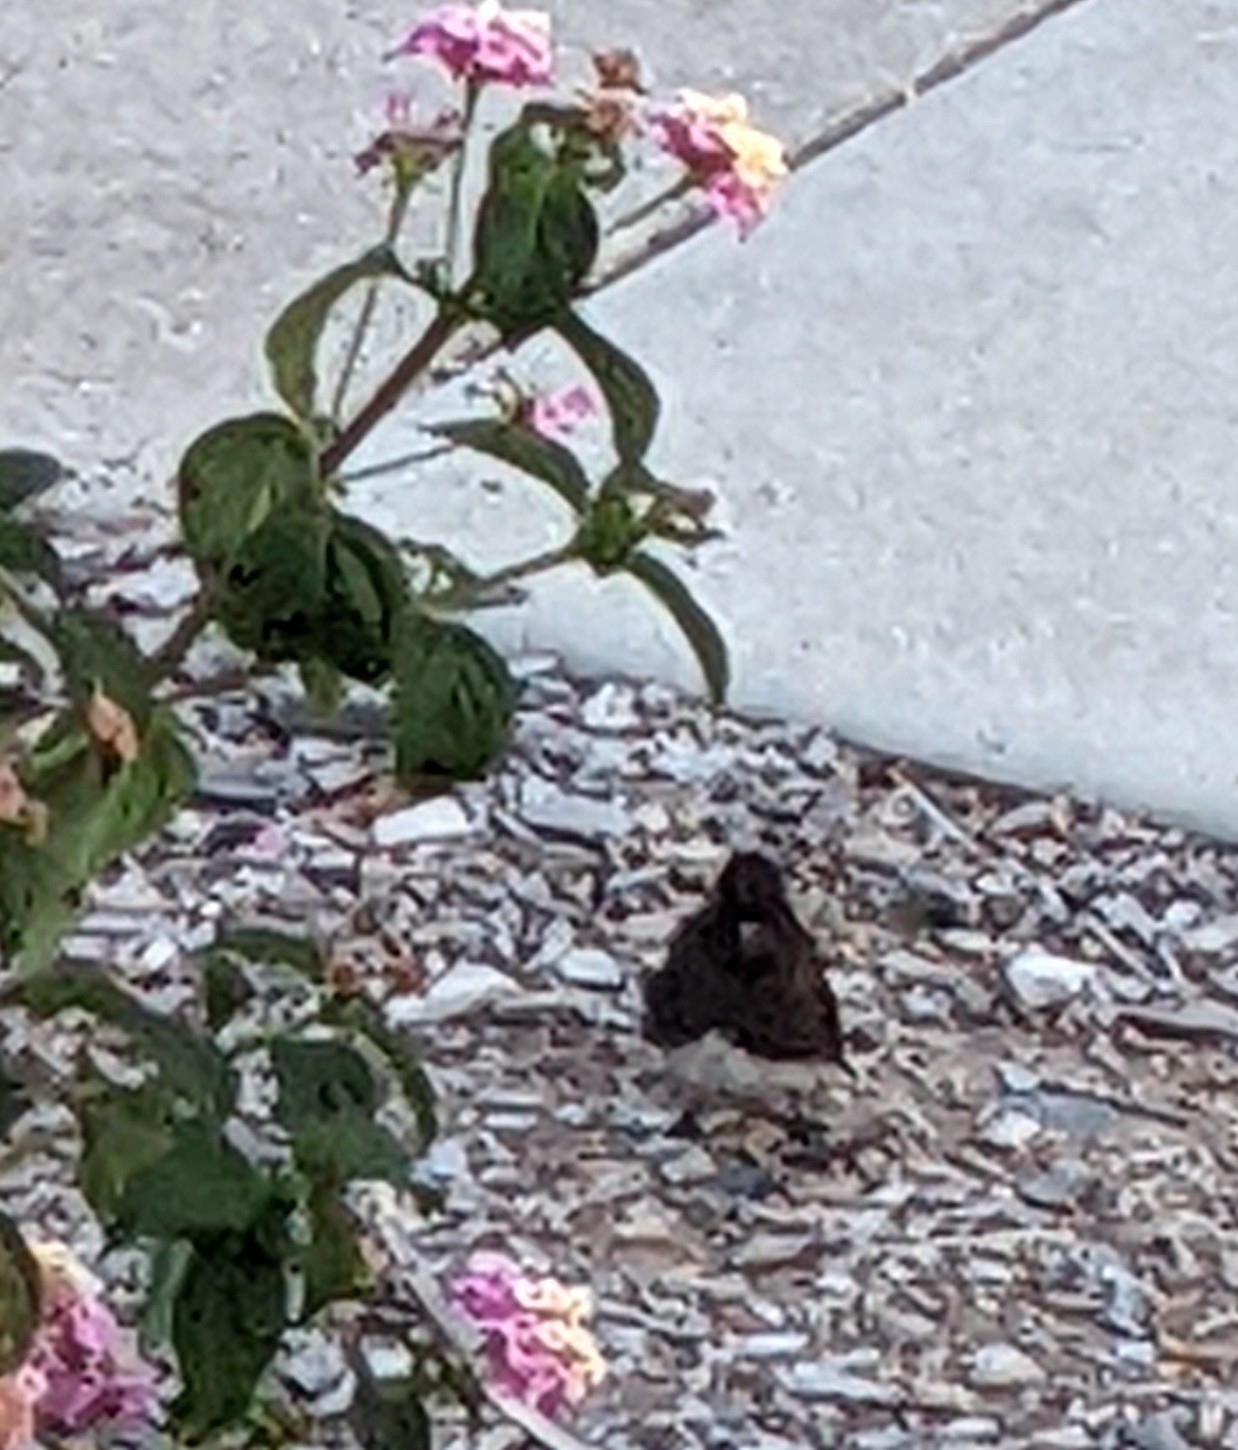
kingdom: Animalia
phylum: Chordata
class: Aves
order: Passeriformes
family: Tyrannidae
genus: Sayornis
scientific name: Sayornis nigricans
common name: Black phoebe
